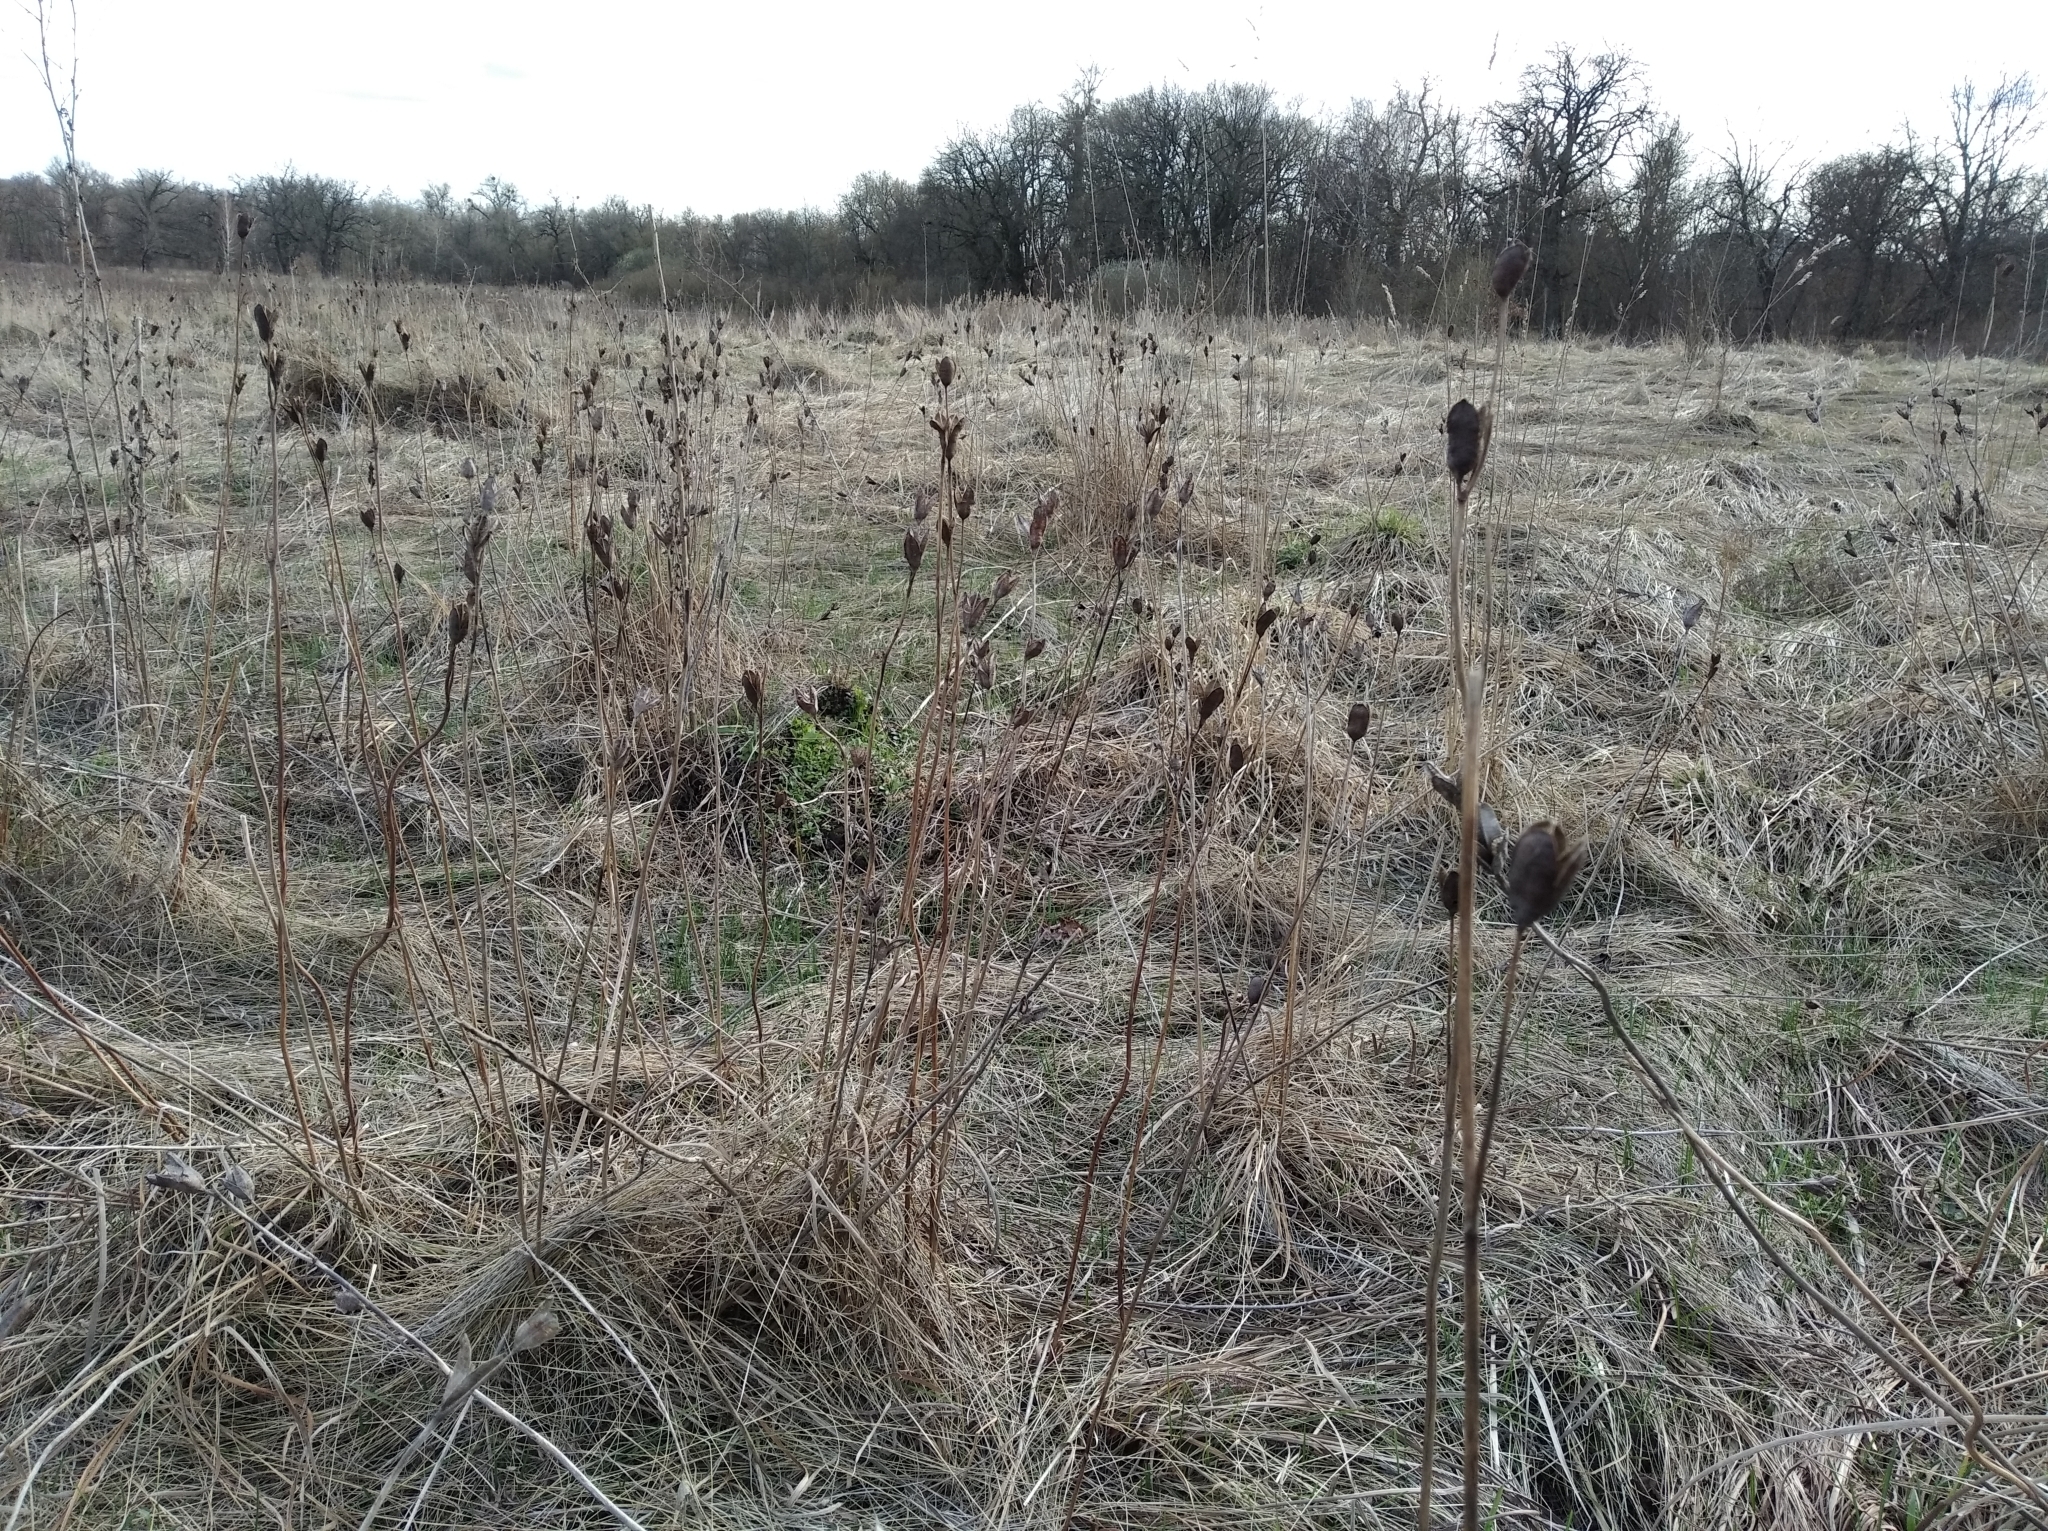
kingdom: Plantae
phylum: Tracheophyta
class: Liliopsida
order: Asparagales
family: Iridaceae
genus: Iris
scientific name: Iris sibirica
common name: Siberian iris
